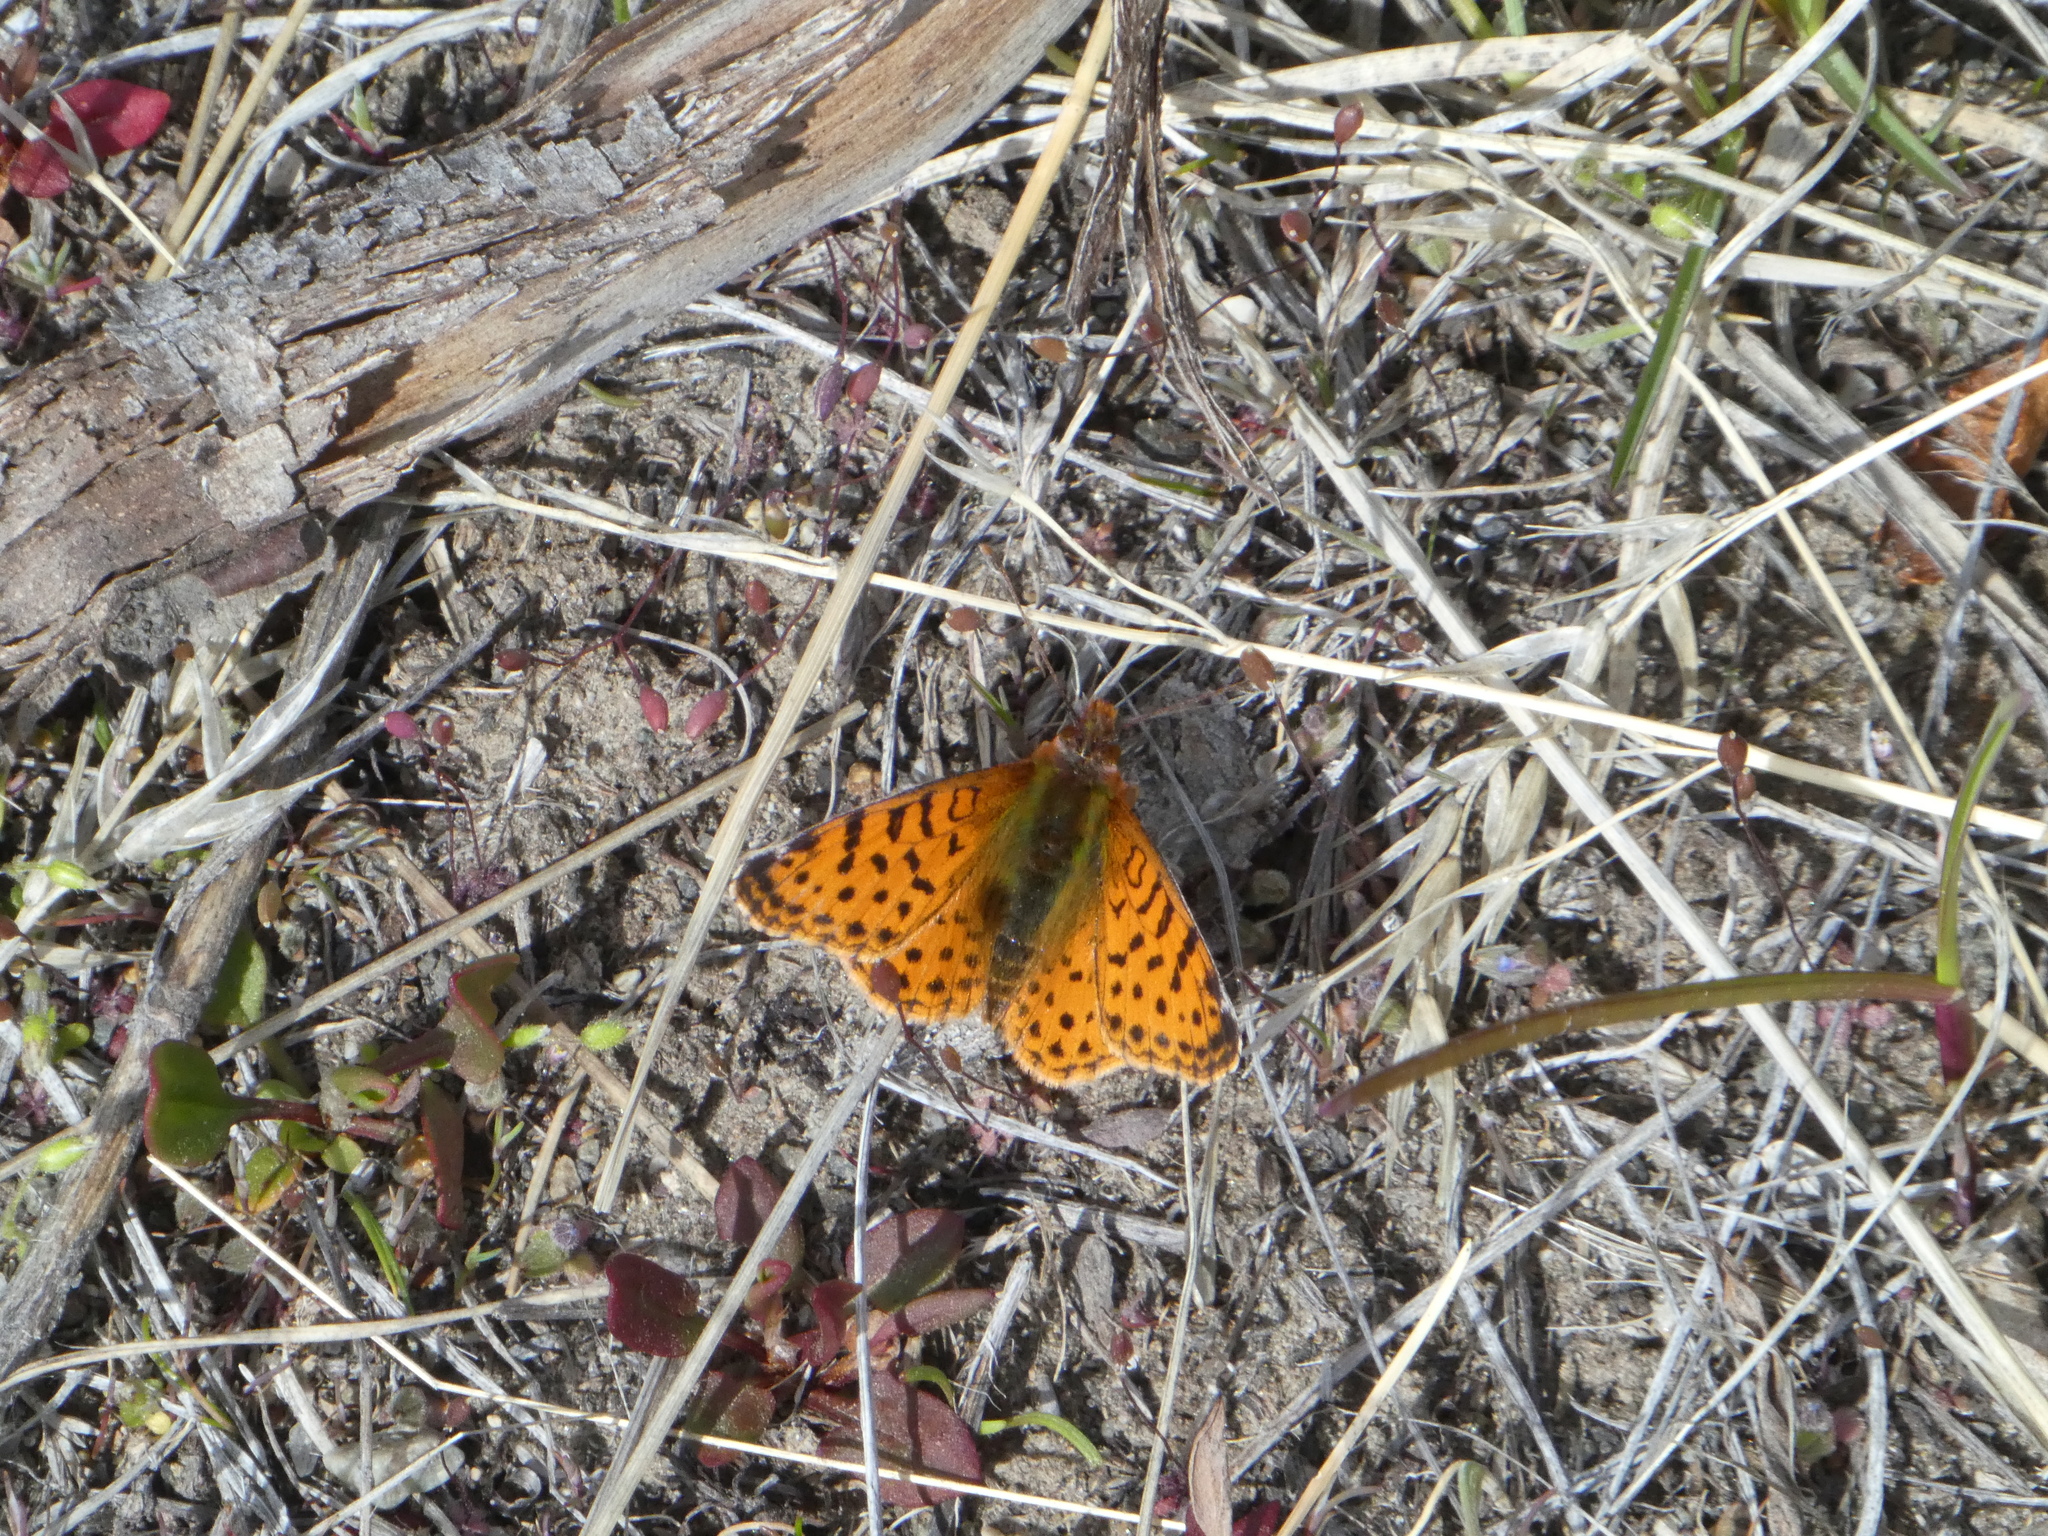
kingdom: Animalia
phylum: Arthropoda
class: Insecta
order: Lepidoptera
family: Nymphalidae
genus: Issoria
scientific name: Issoria Yramea cytheris
